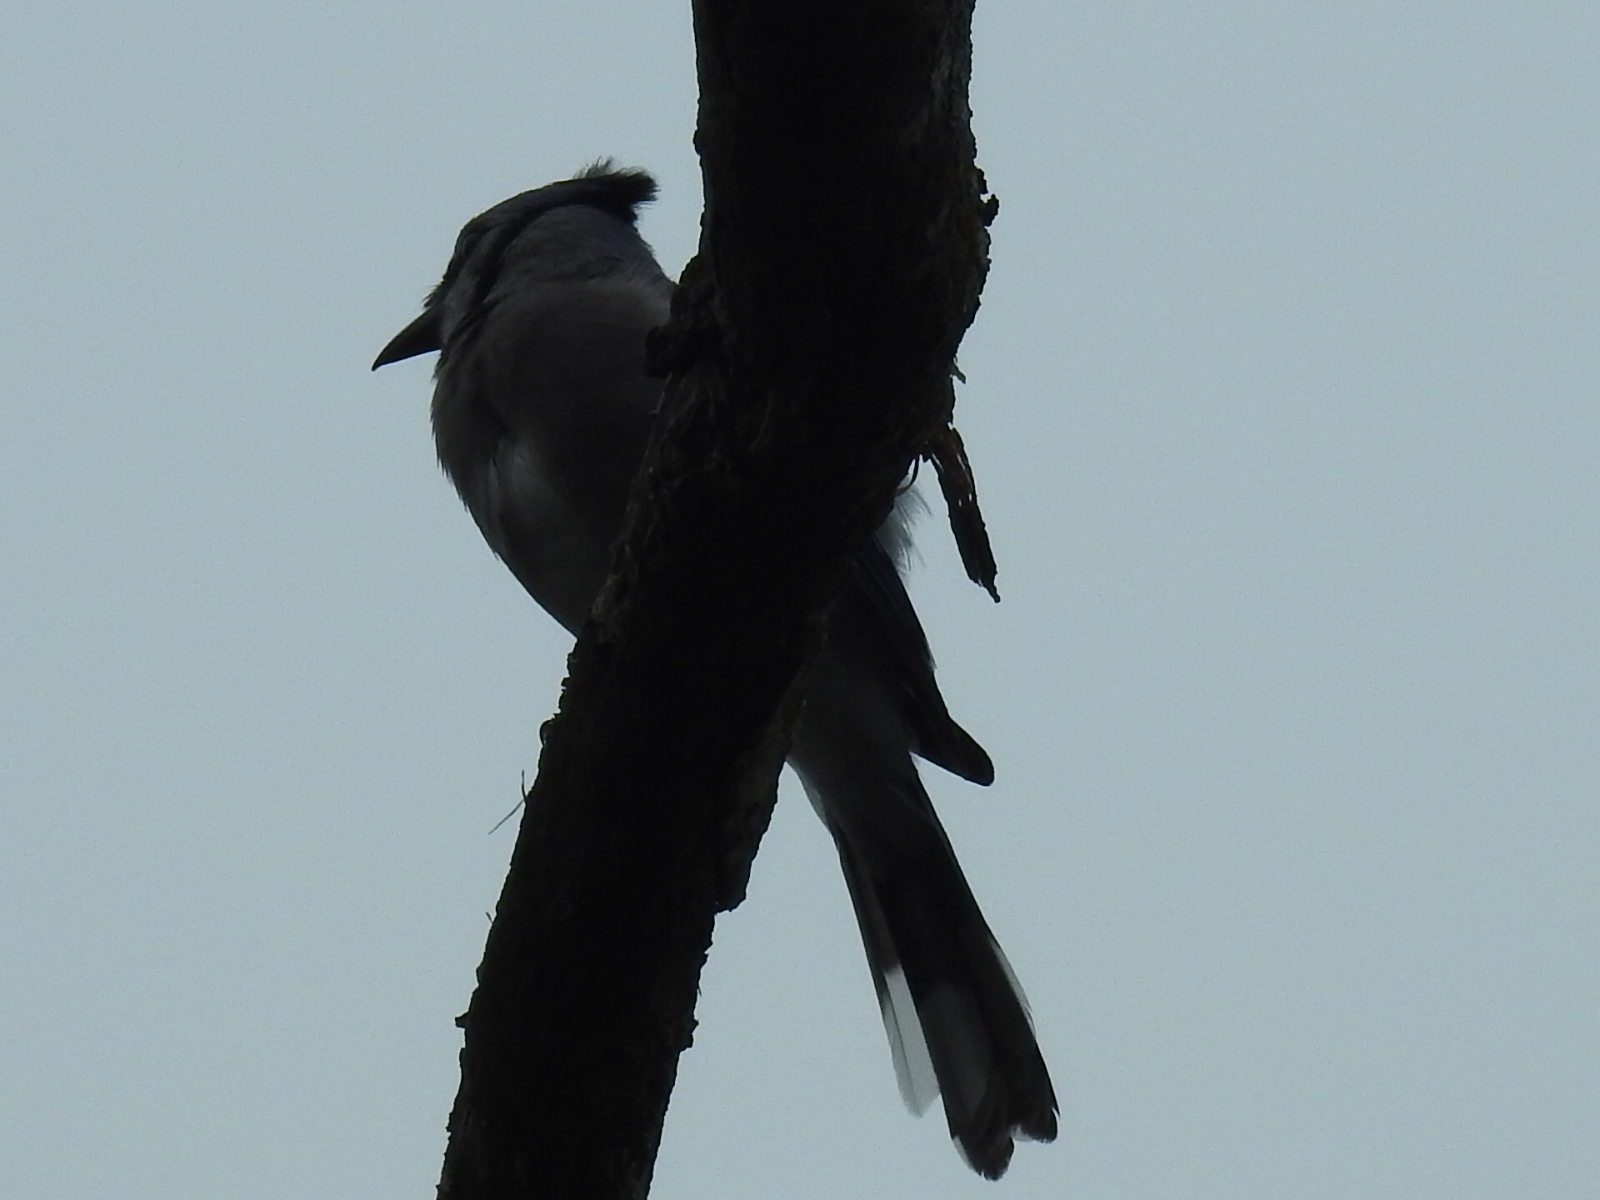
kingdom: Animalia
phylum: Chordata
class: Aves
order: Passeriformes
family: Corvidae
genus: Cyanocitta
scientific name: Cyanocitta cristata
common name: Blue jay
